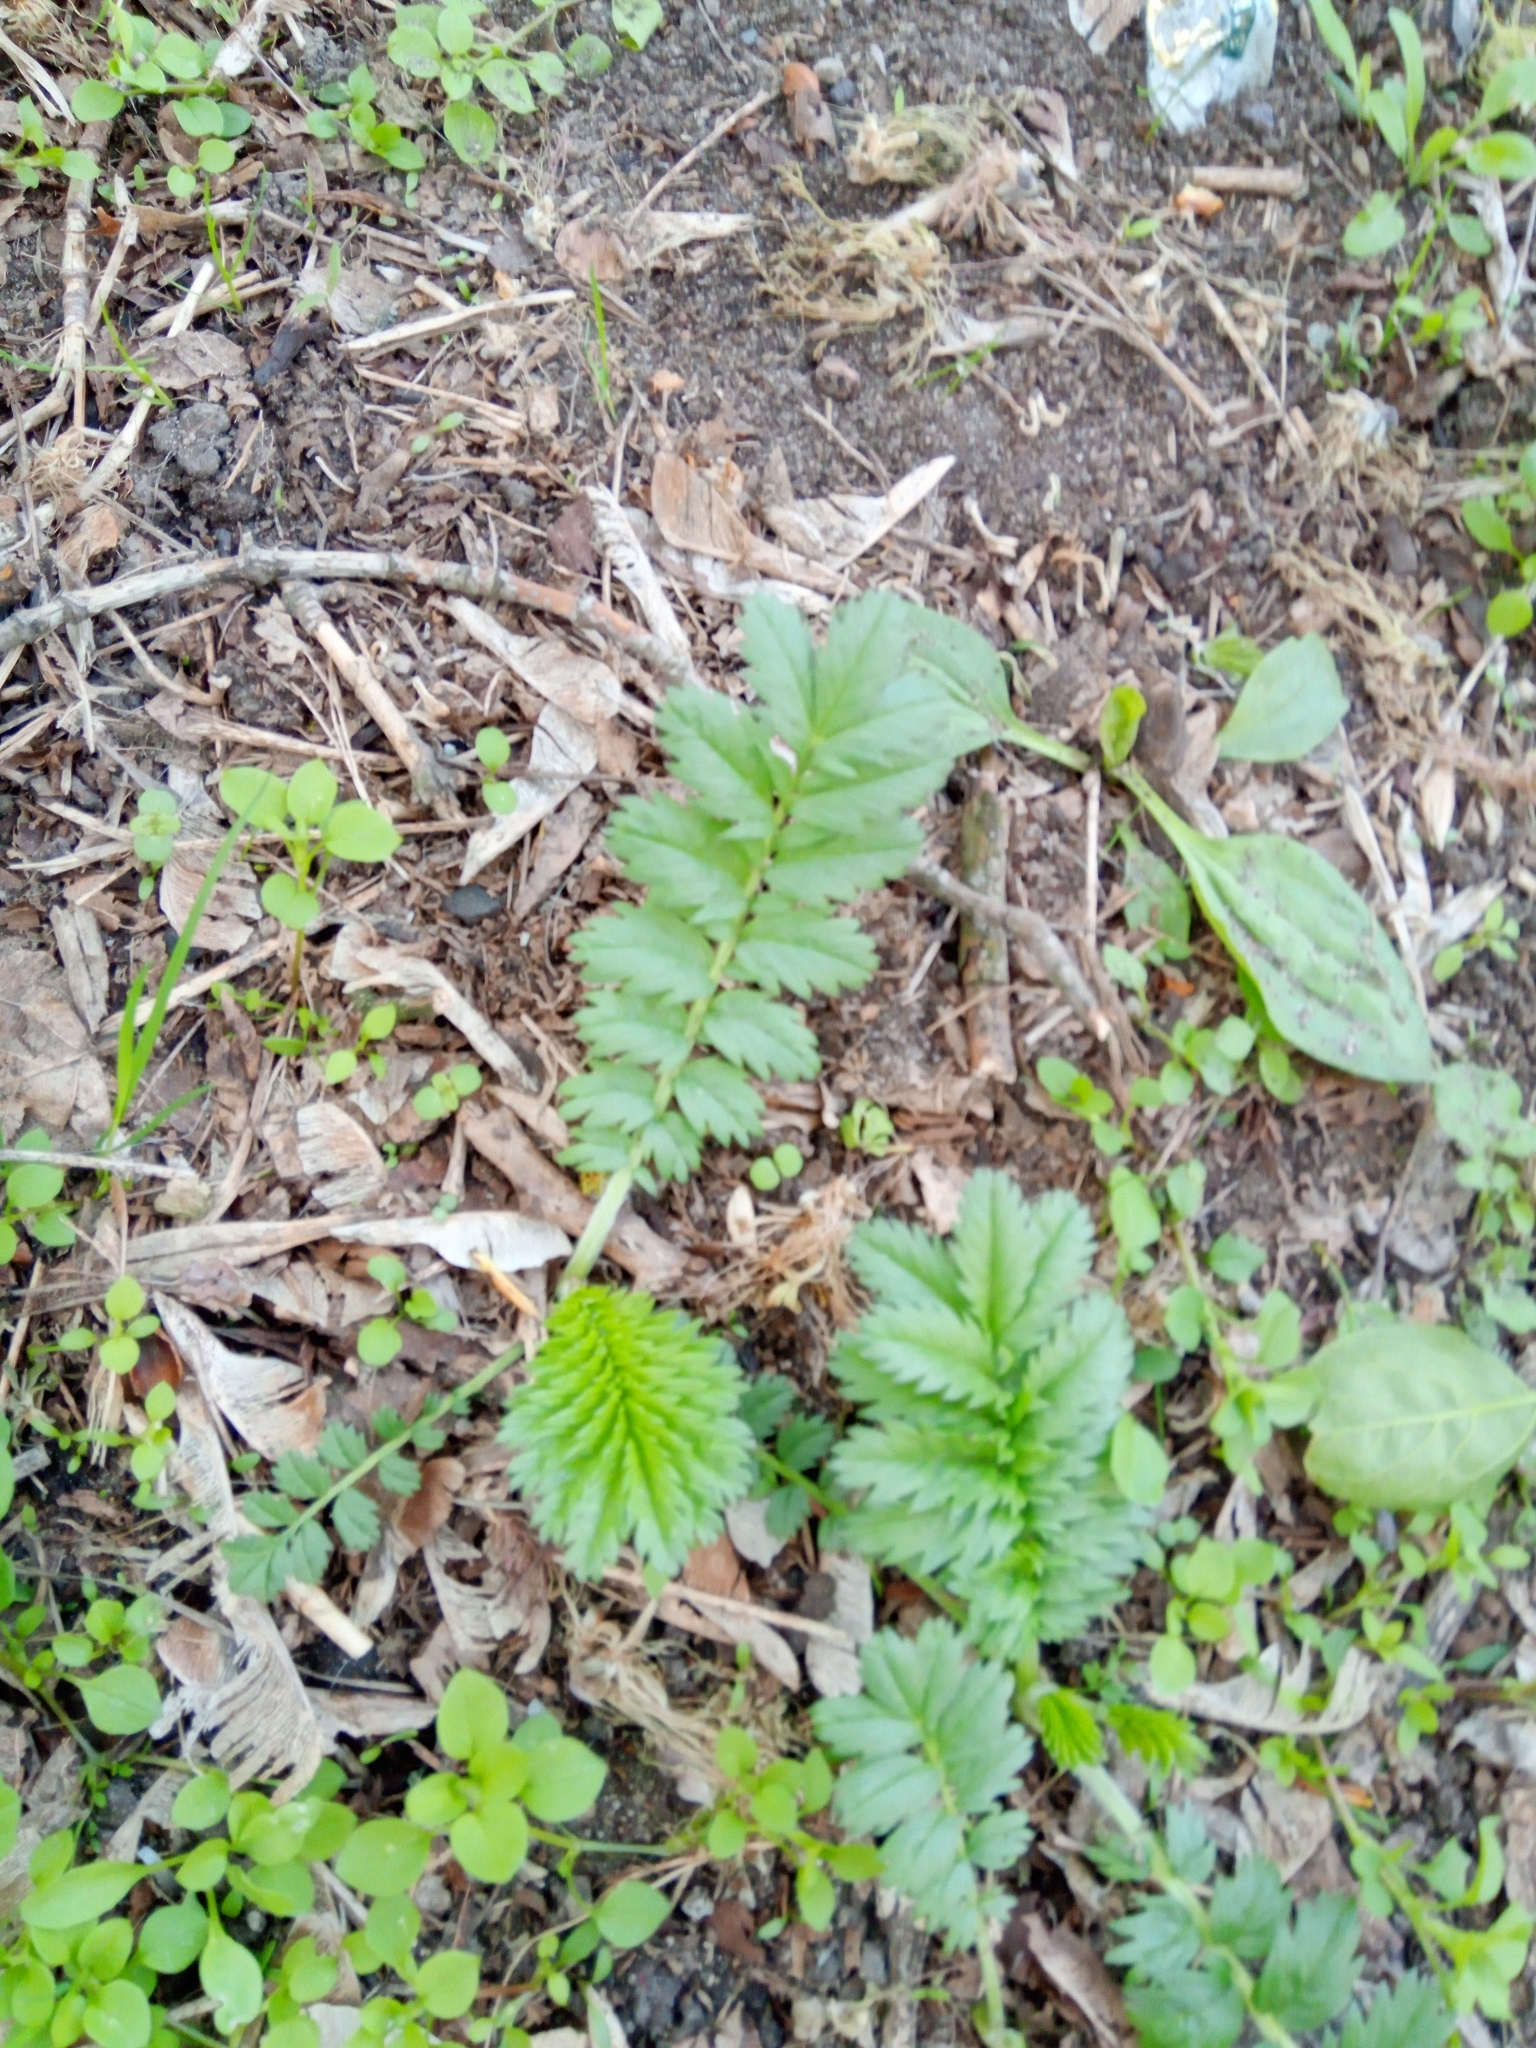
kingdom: Plantae
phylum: Tracheophyta
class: Magnoliopsida
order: Rosales
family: Rosaceae
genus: Argentina
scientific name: Argentina anserina
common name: Common silverweed
